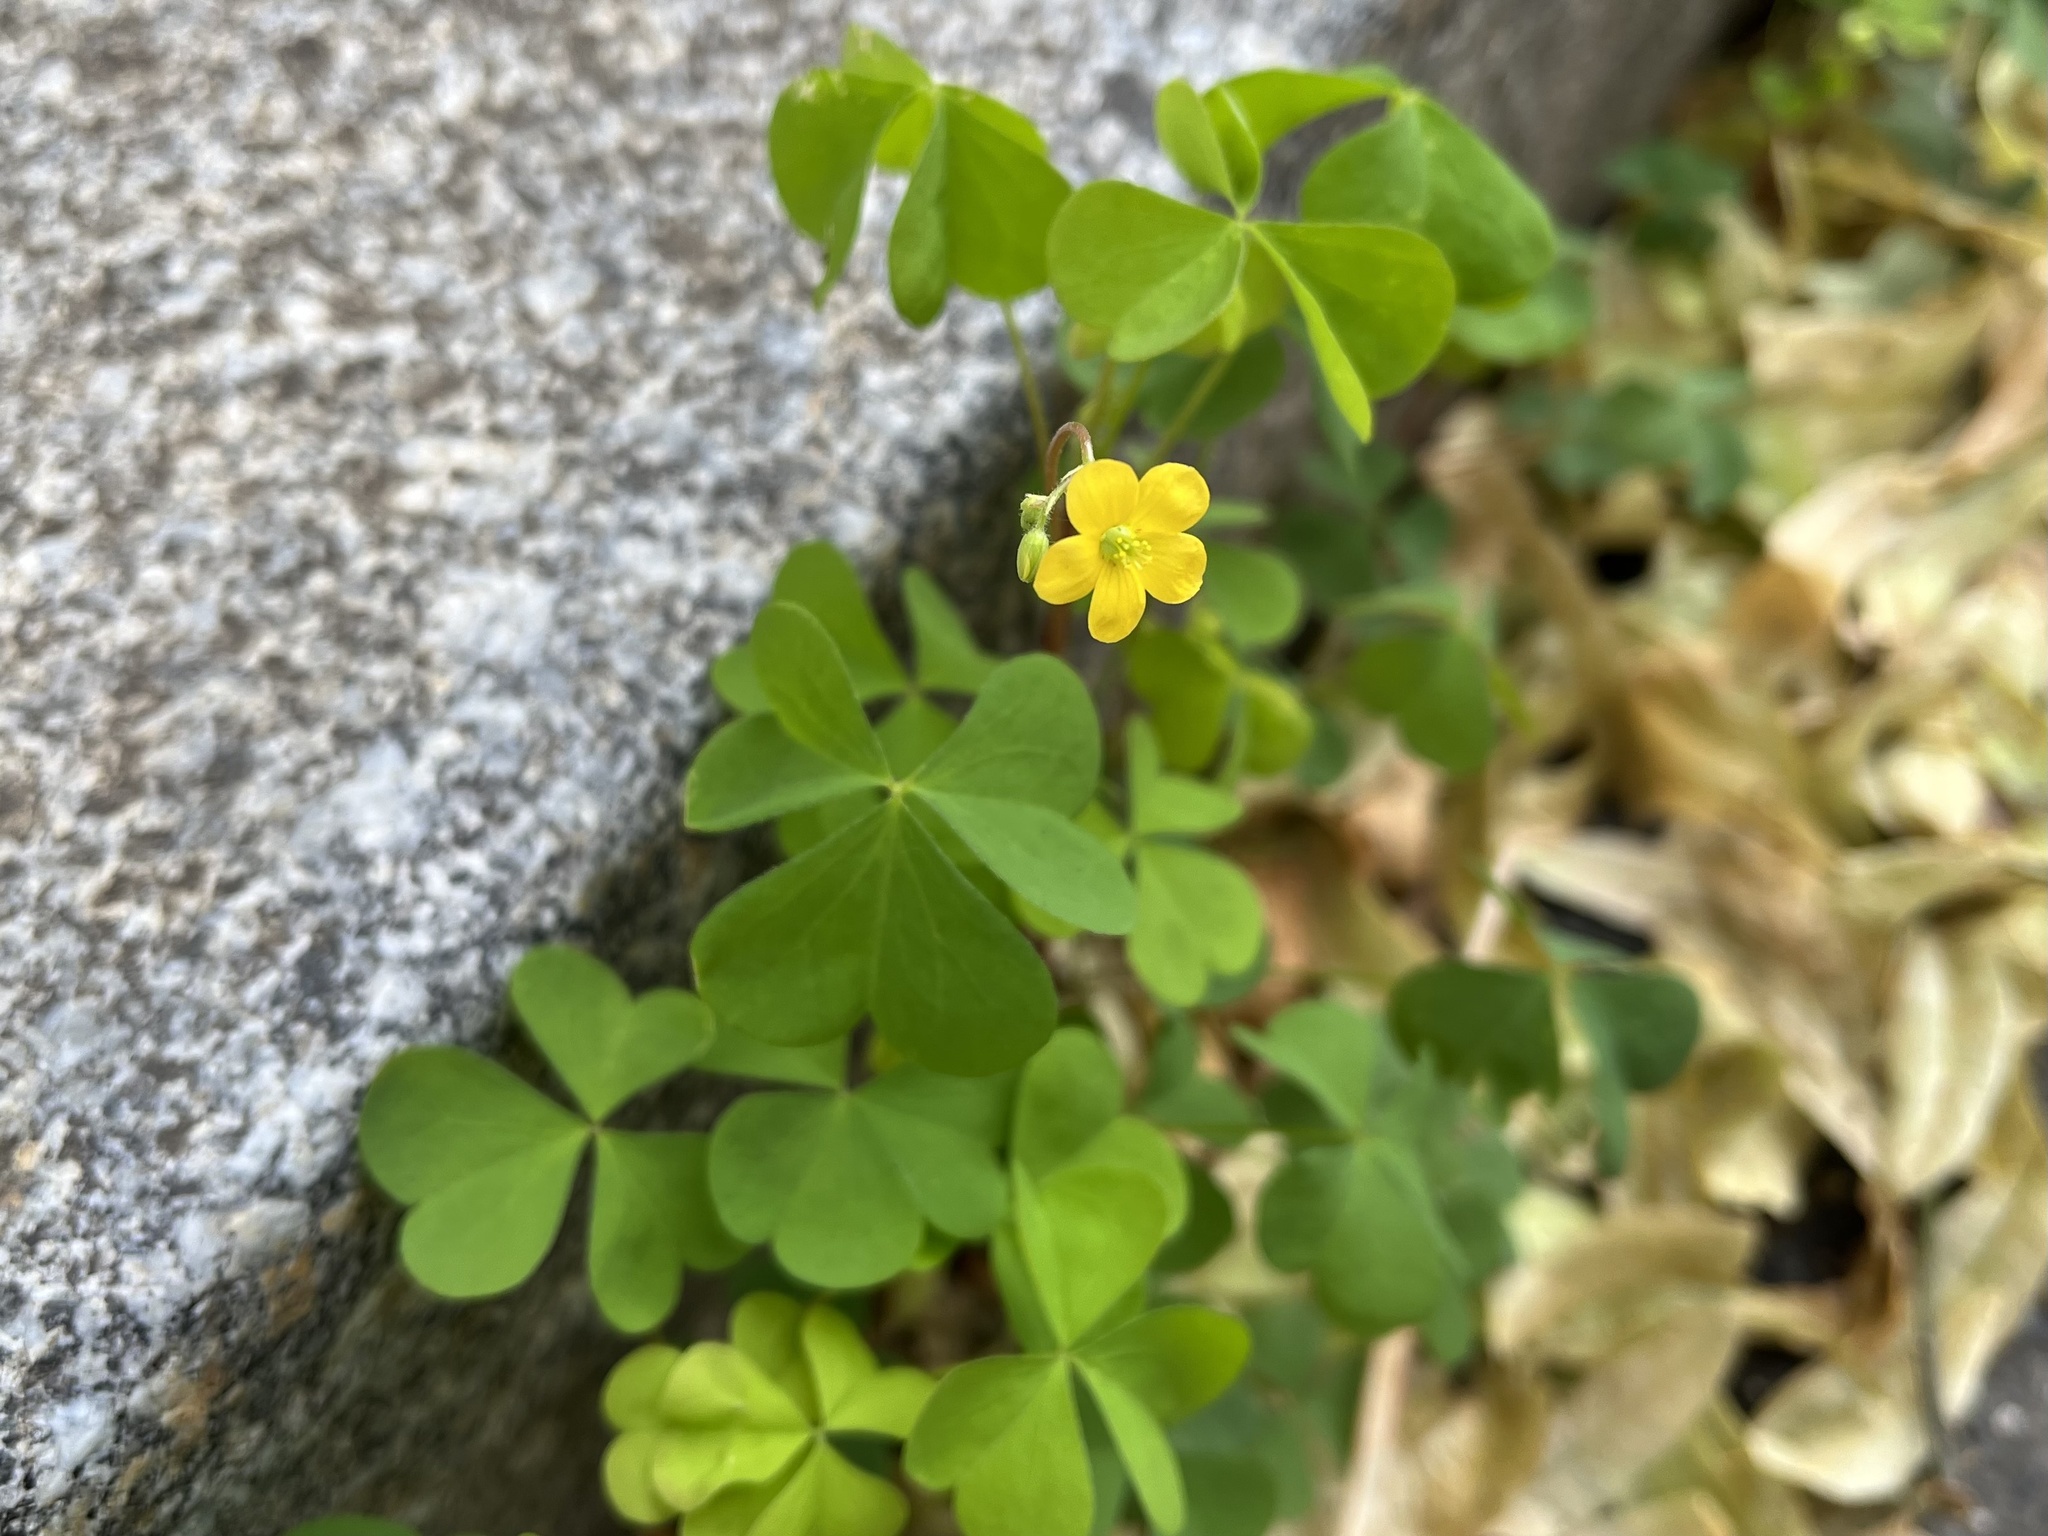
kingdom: Plantae
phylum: Tracheophyta
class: Magnoliopsida
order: Oxalidales
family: Oxalidaceae
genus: Oxalis
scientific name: Oxalis stricta
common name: Upright yellow-sorrel
